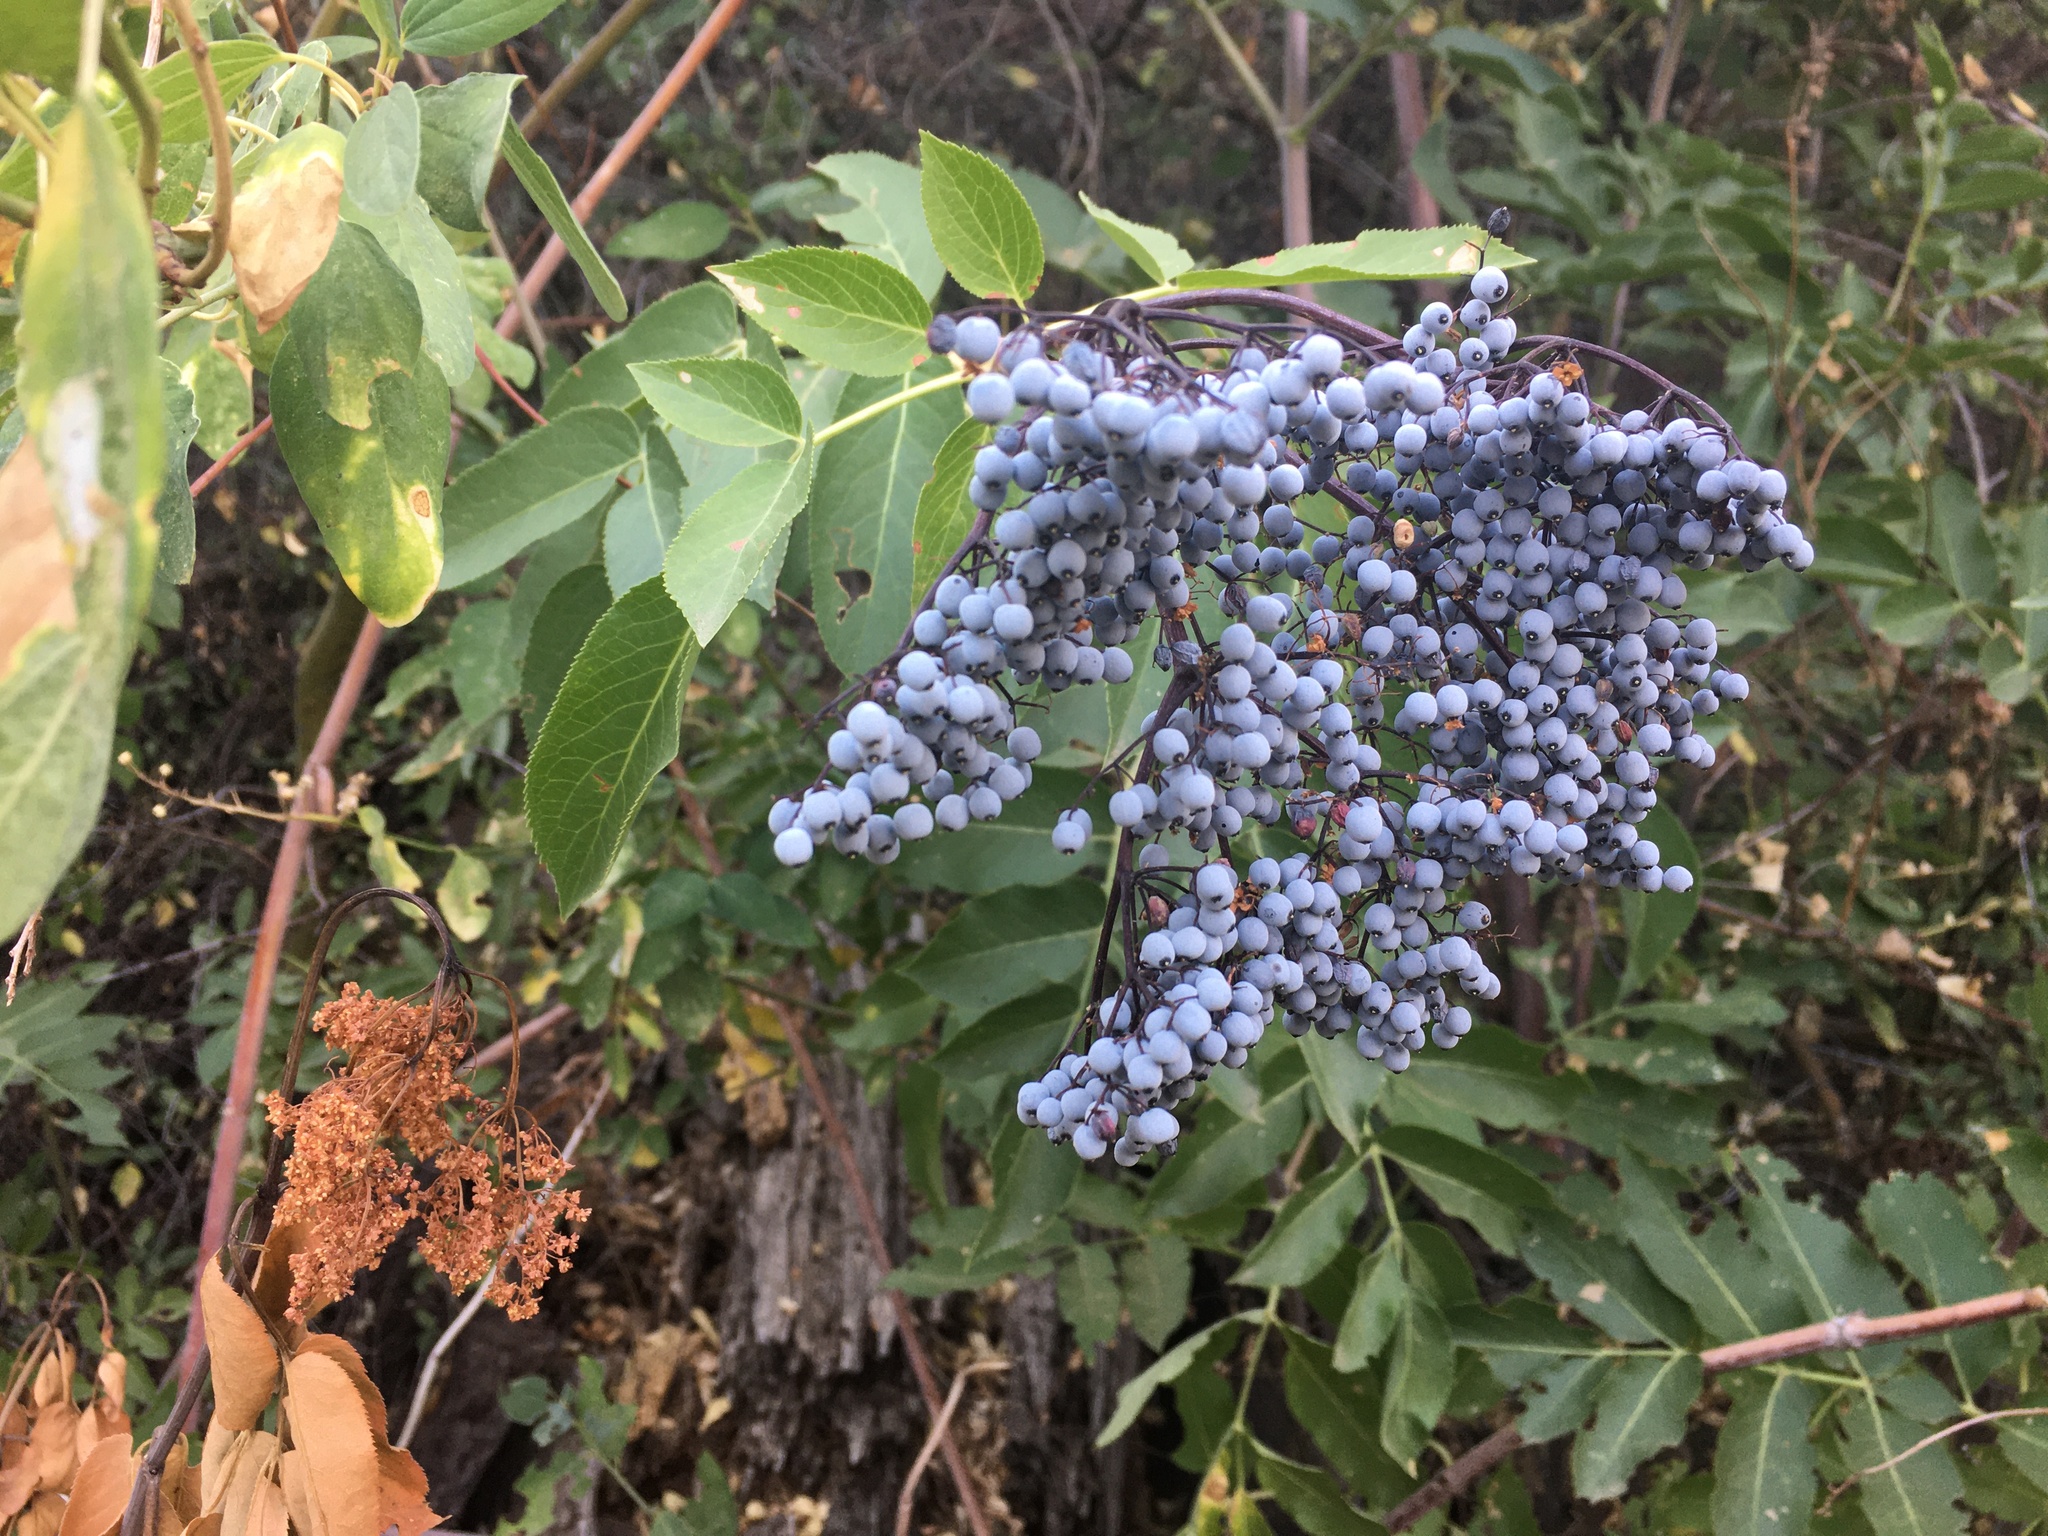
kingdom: Plantae
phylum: Tracheophyta
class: Magnoliopsida
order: Dipsacales
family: Viburnaceae
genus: Sambucus
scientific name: Sambucus cerulea
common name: Blue elder
